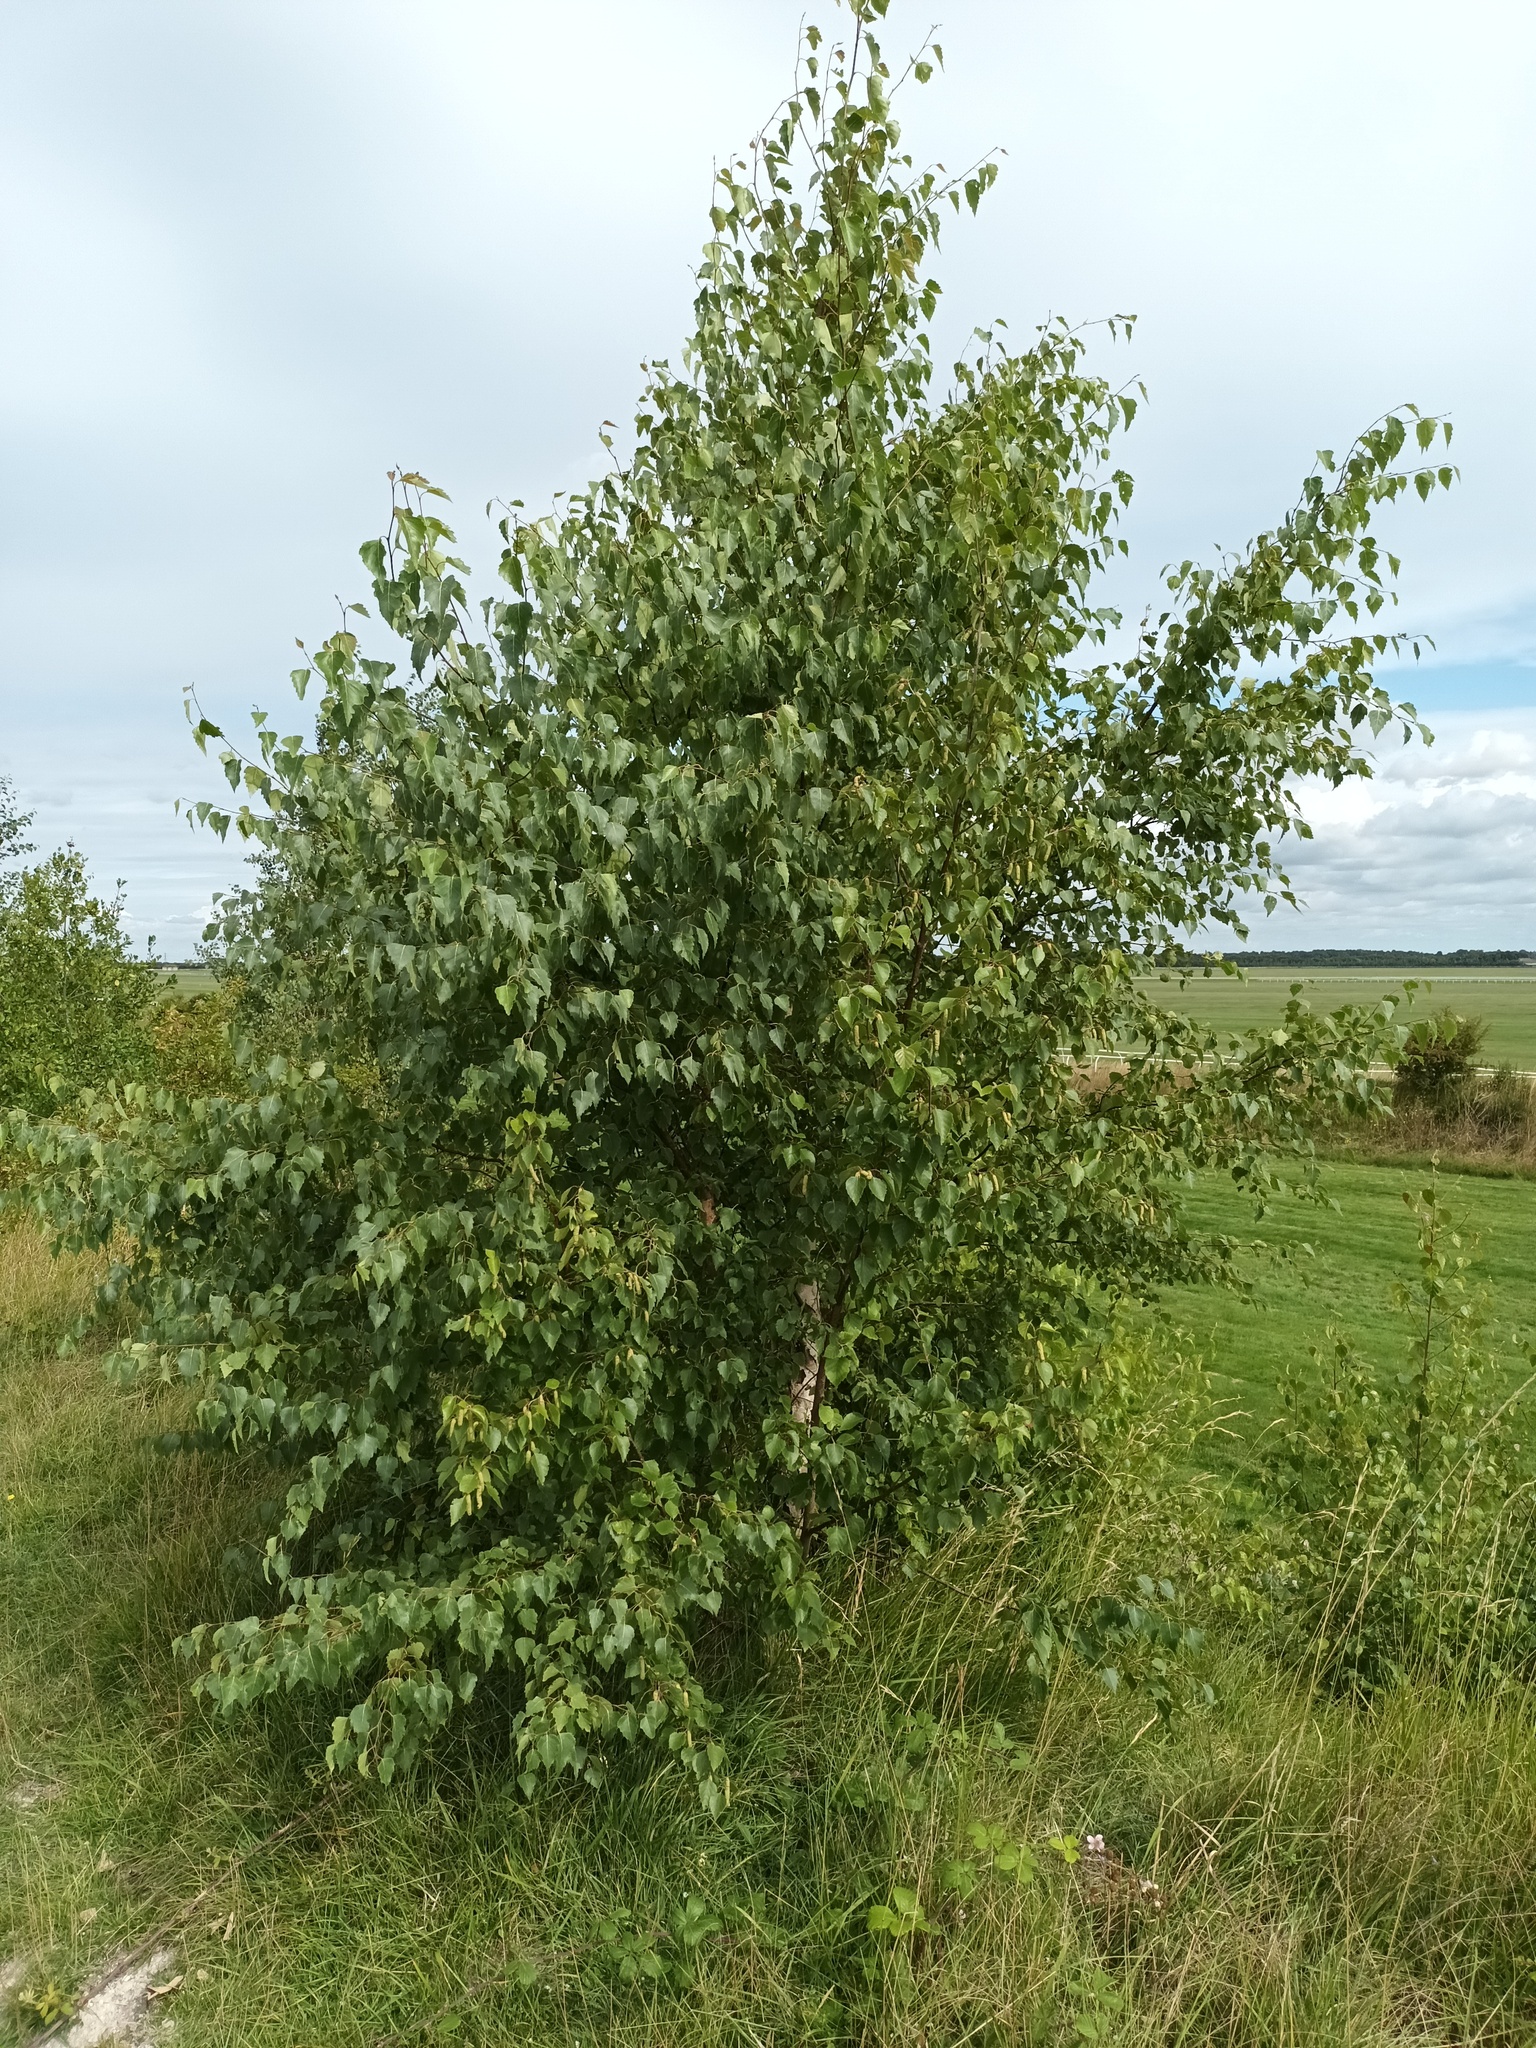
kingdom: Plantae
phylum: Tracheophyta
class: Magnoliopsida
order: Fagales
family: Betulaceae
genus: Betula
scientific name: Betula pendula
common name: Silver birch
